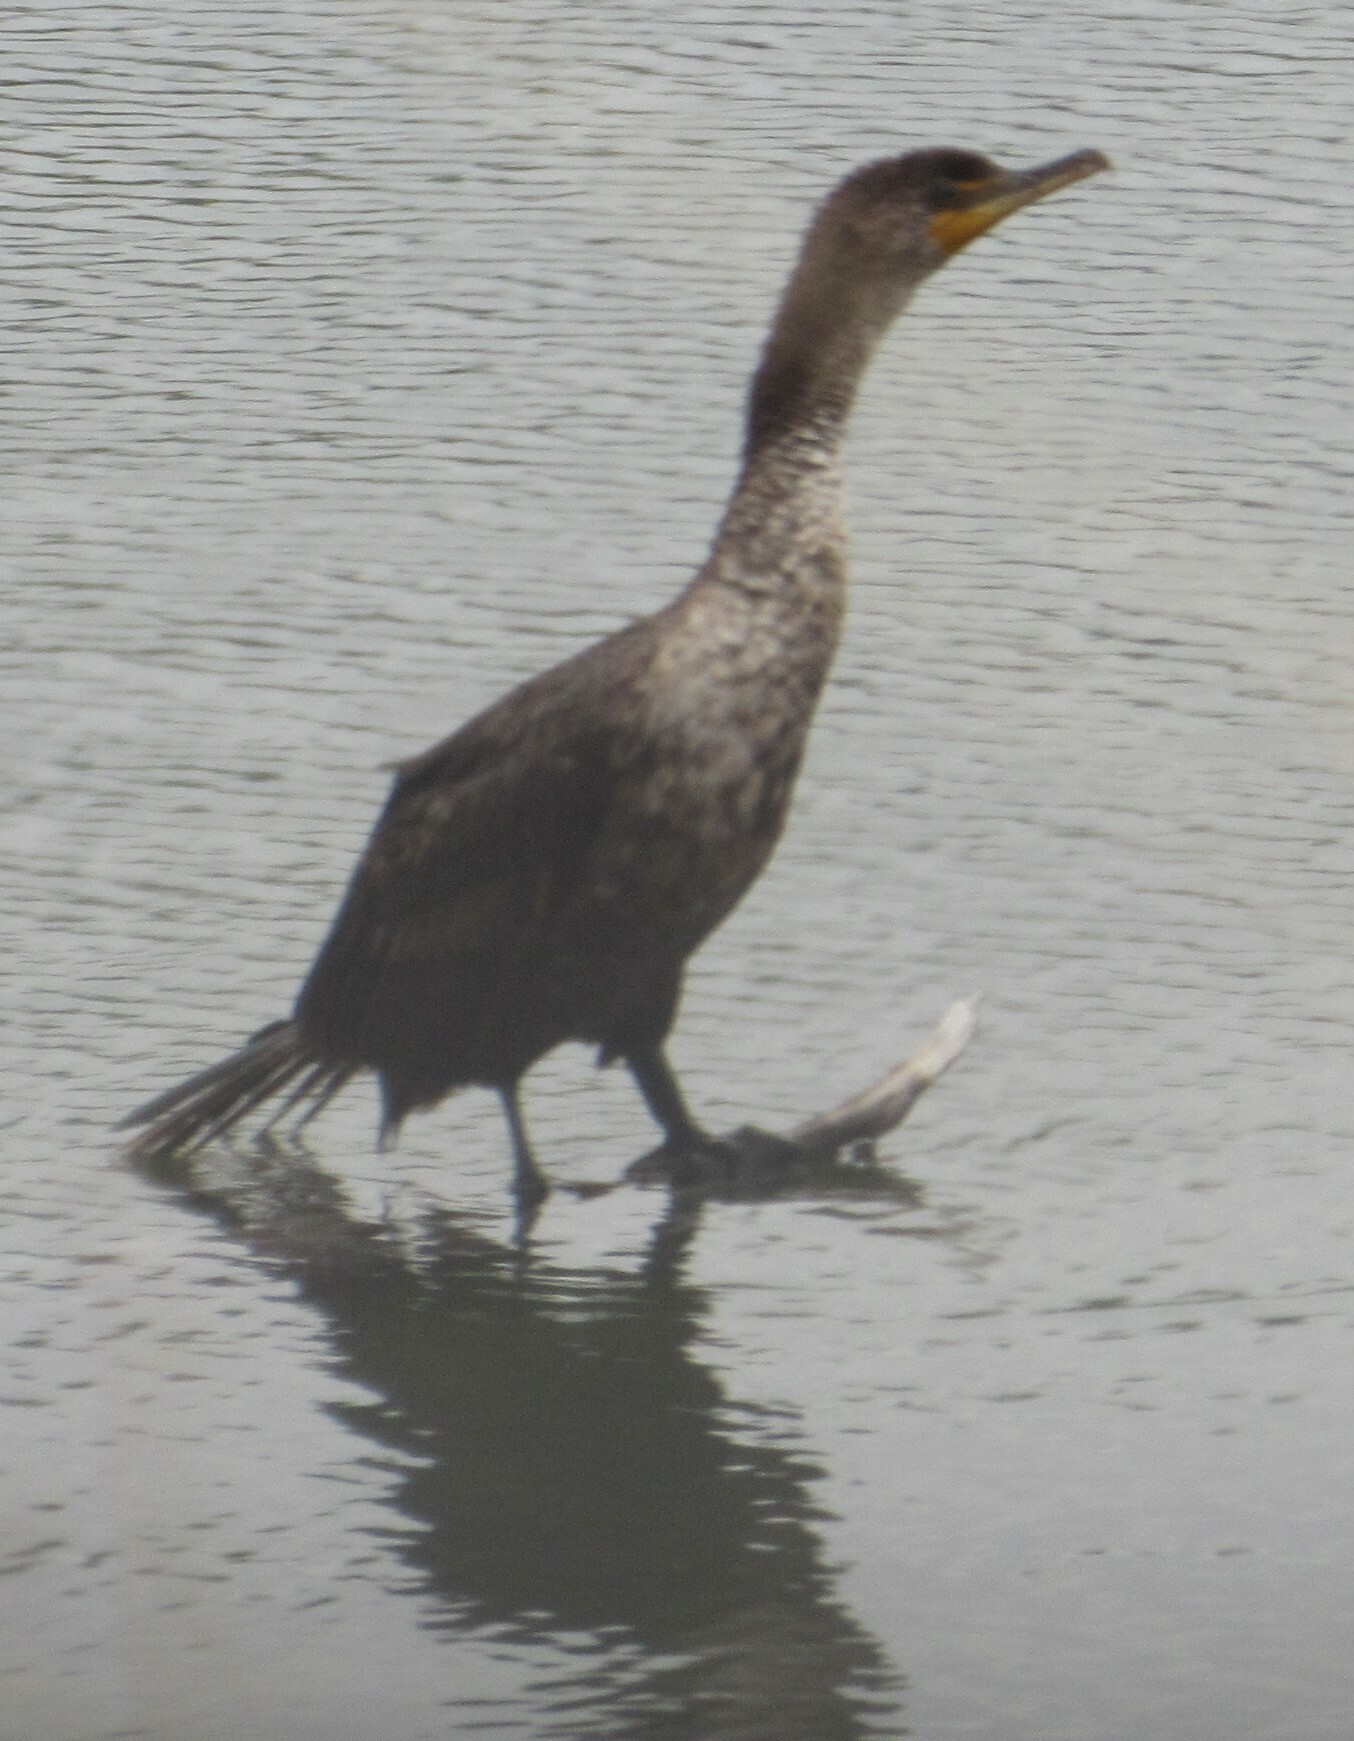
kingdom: Animalia
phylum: Chordata
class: Aves
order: Suliformes
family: Phalacrocoracidae
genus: Phalacrocorax
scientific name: Phalacrocorax auritus
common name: Double-crested cormorant
